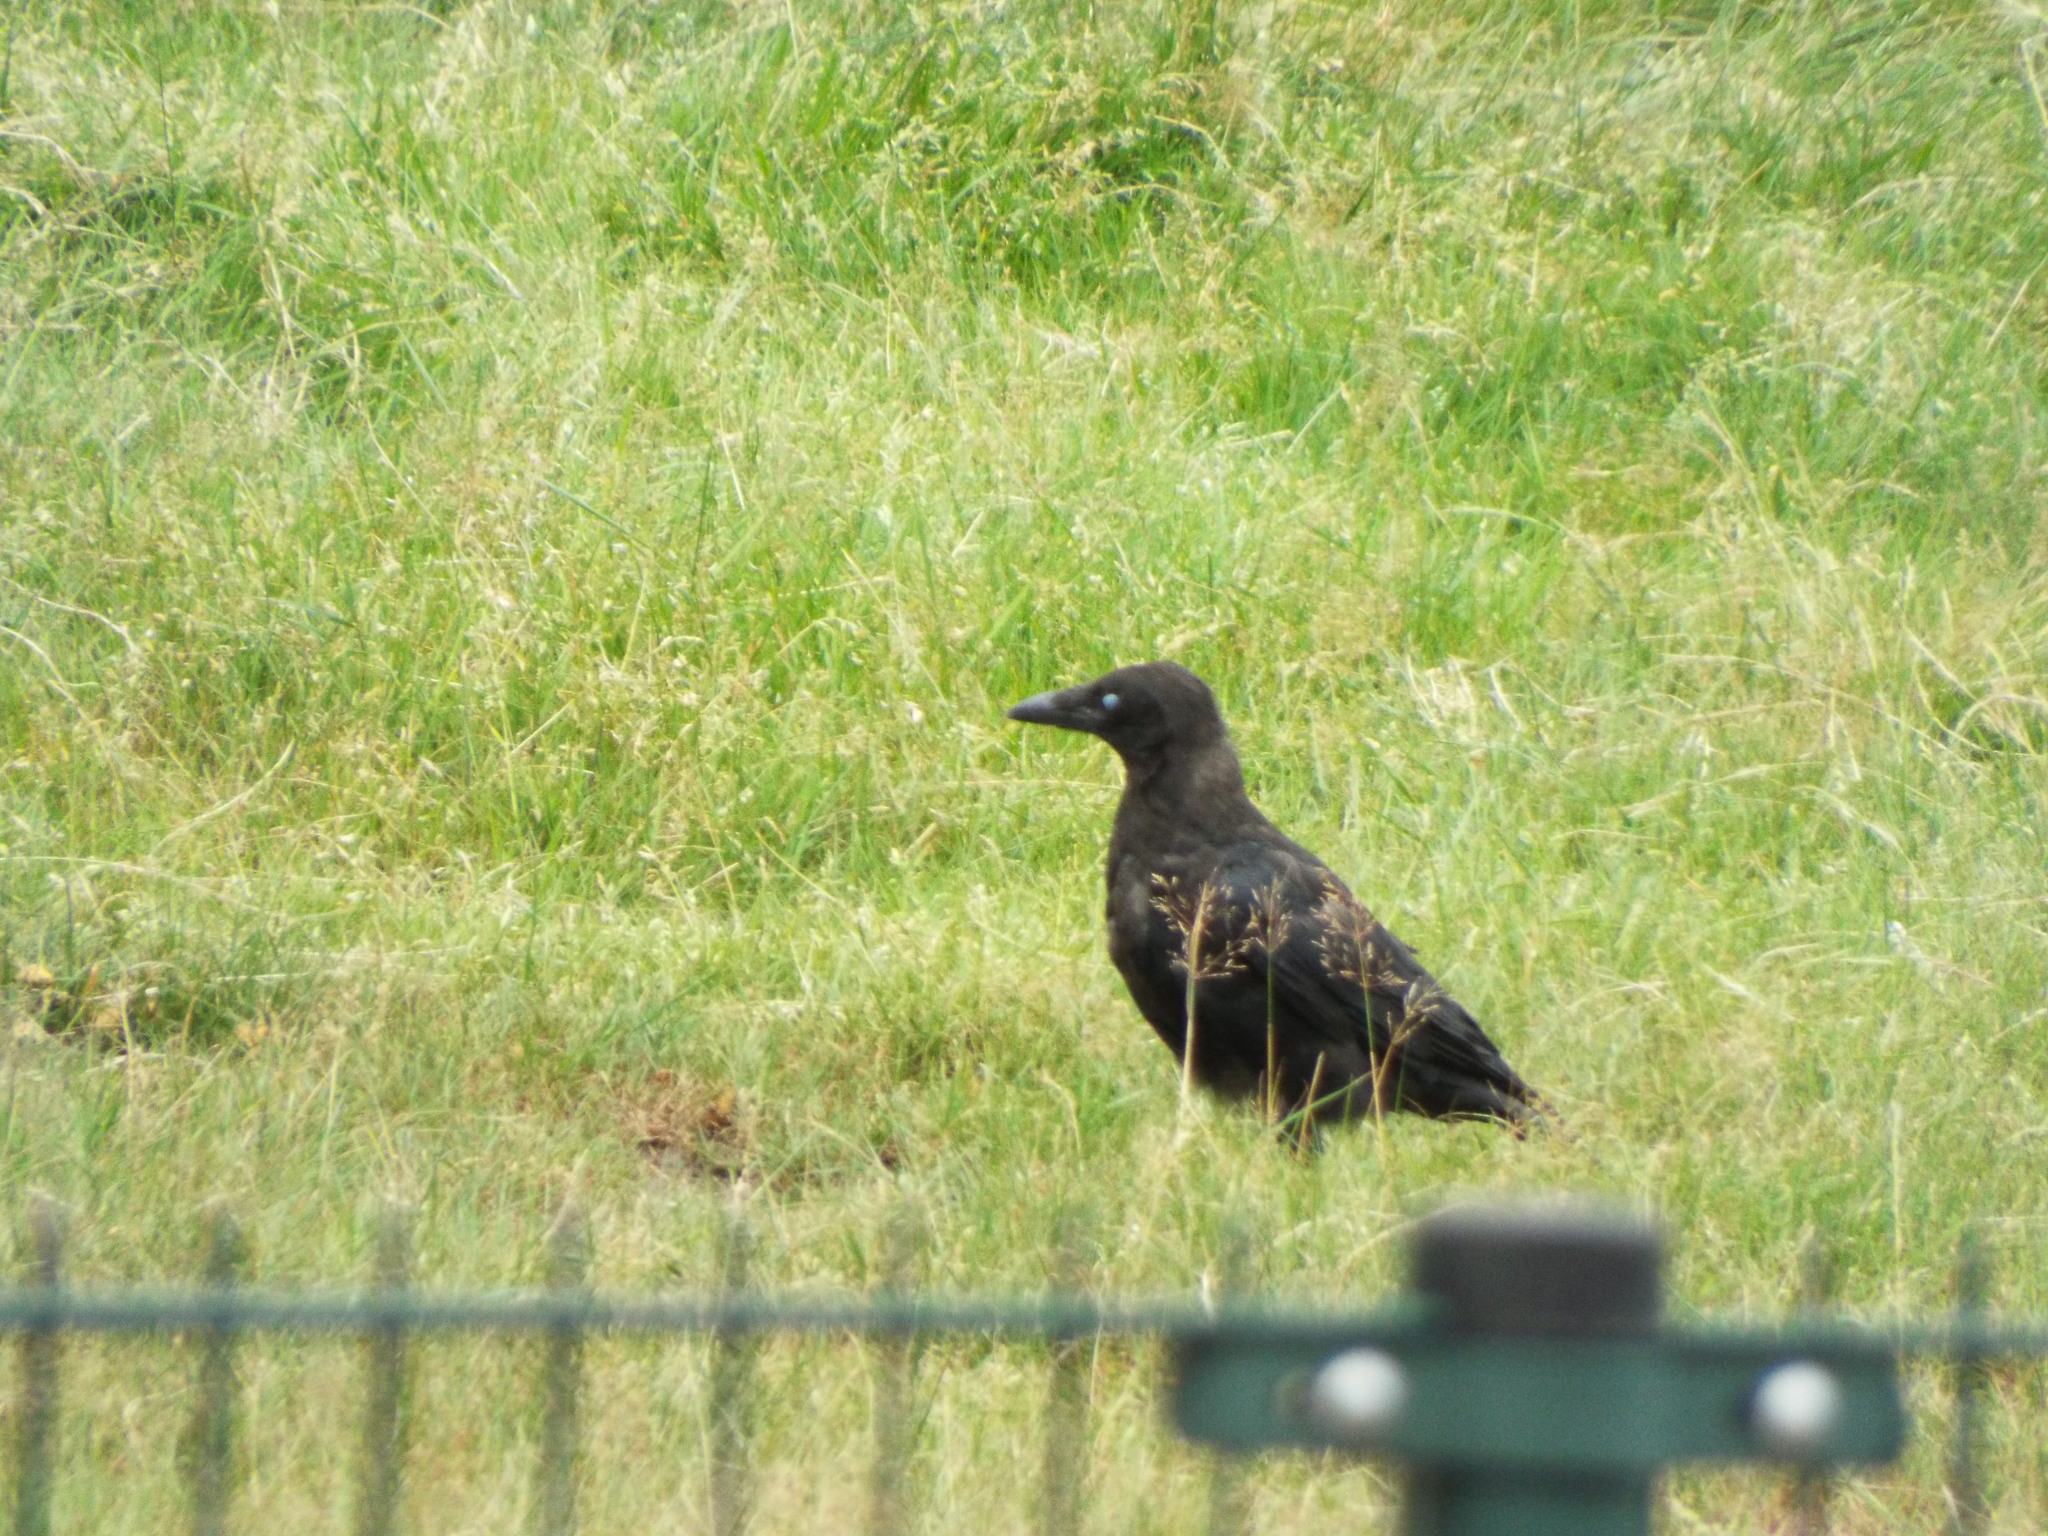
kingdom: Animalia
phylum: Chordata
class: Aves
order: Passeriformes
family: Corvidae
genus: Corvus
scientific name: Corvus corone
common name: Carrion crow
